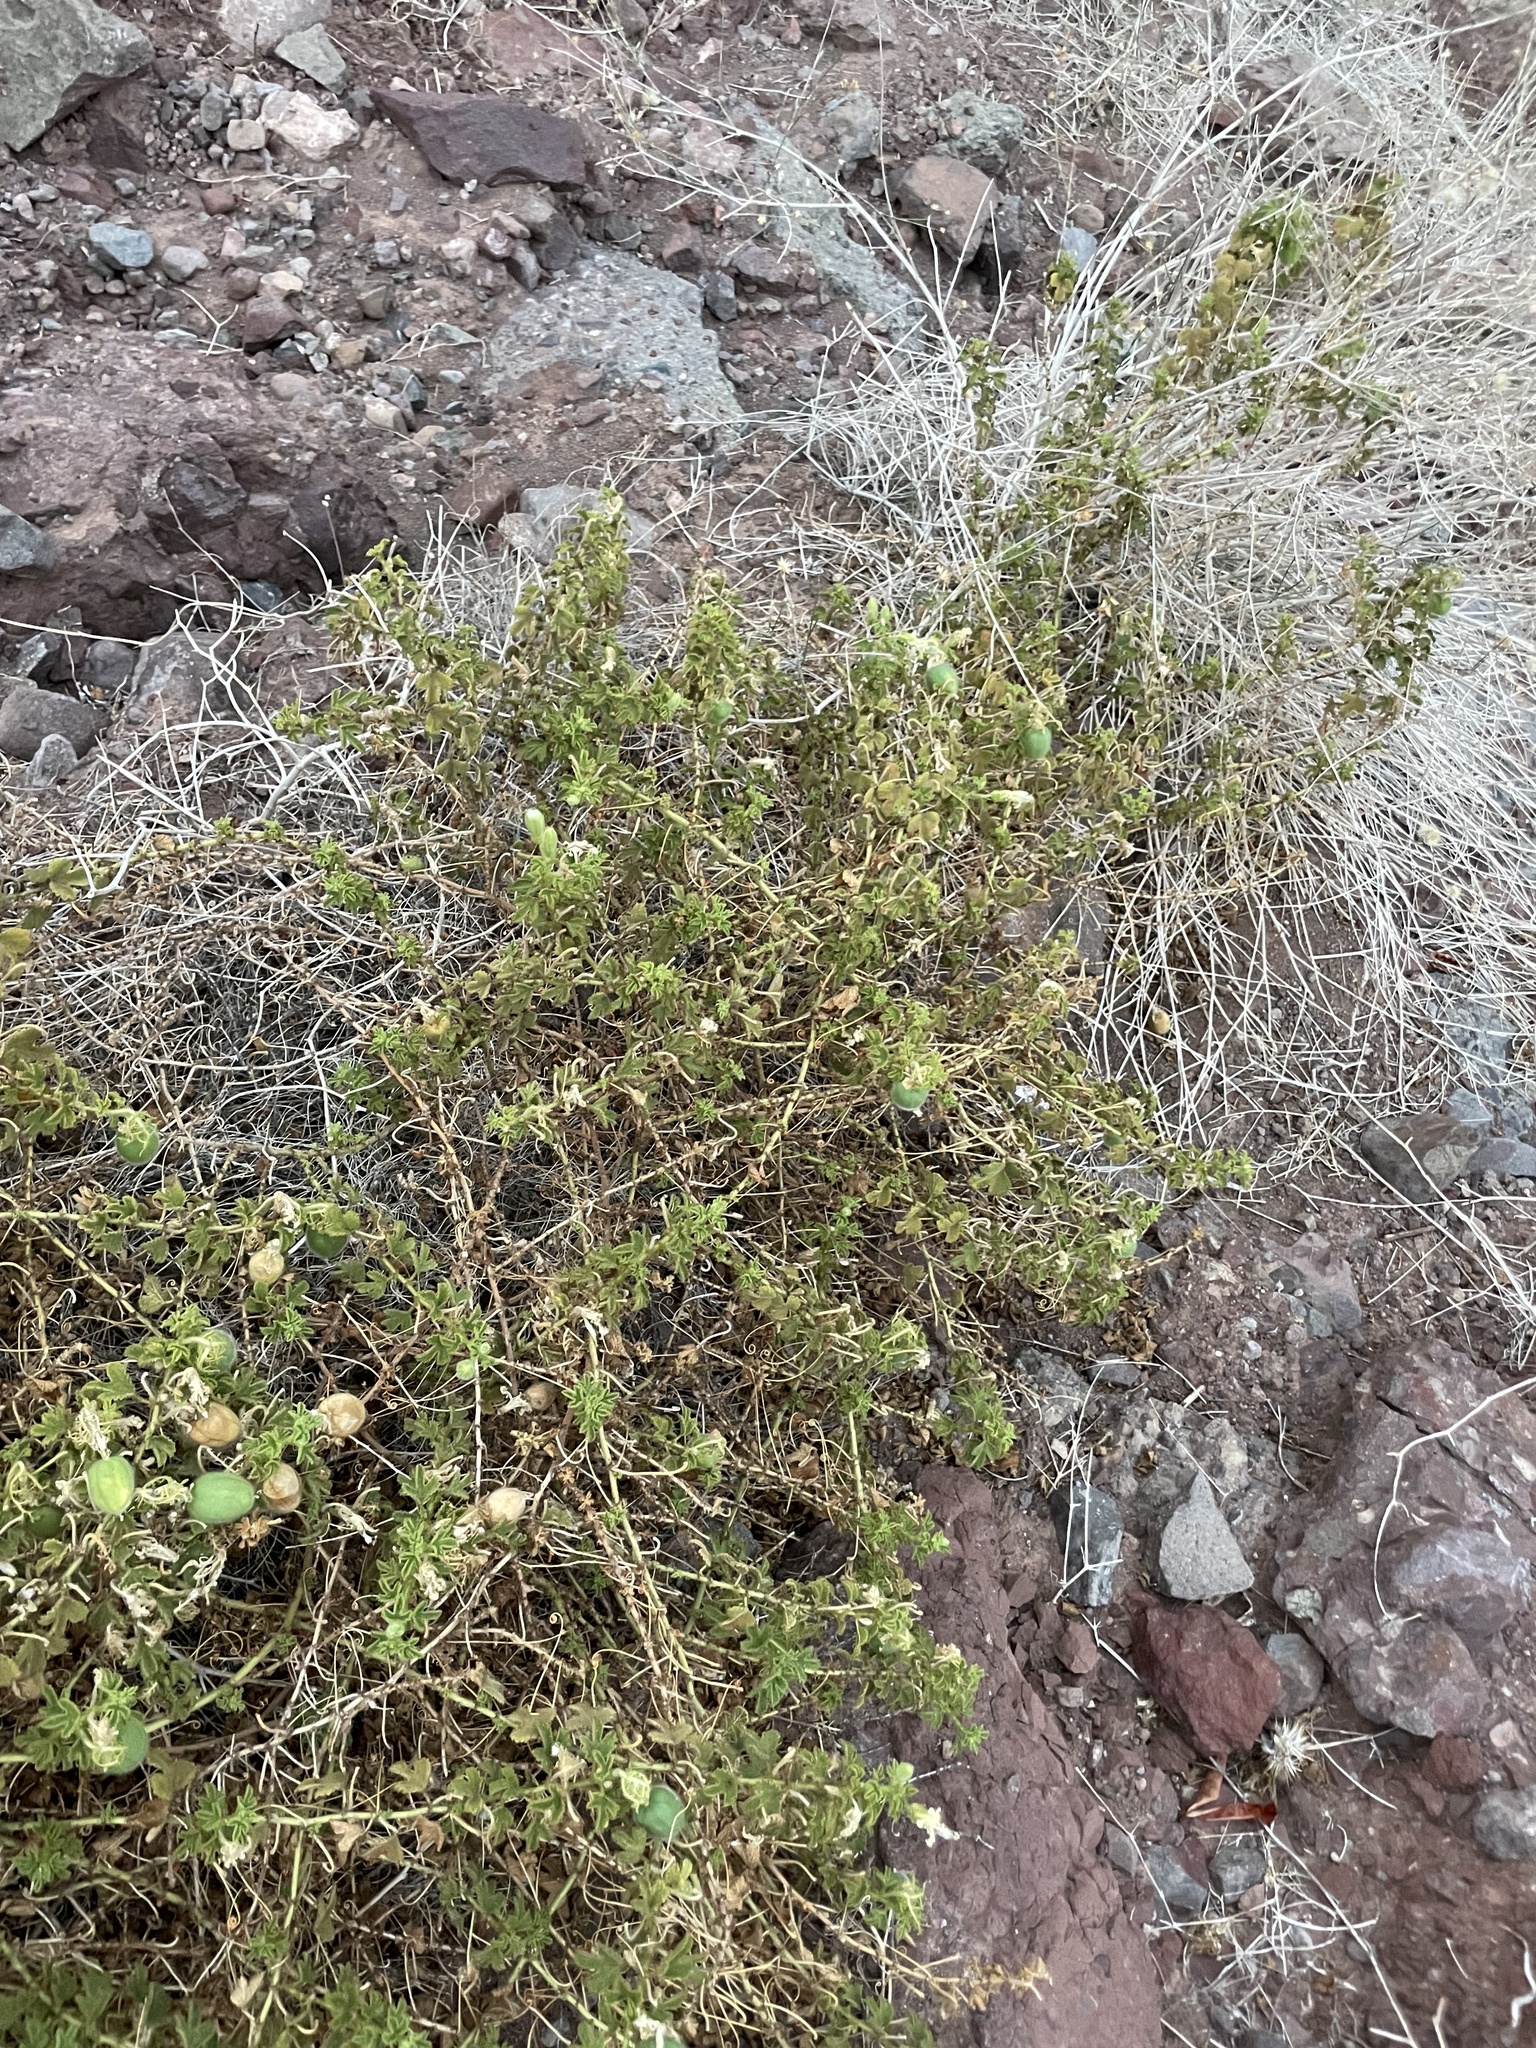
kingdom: Plantae
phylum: Tracheophyta
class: Magnoliopsida
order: Malpighiales
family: Passifloraceae
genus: Passiflora
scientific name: Passiflora palmeri
